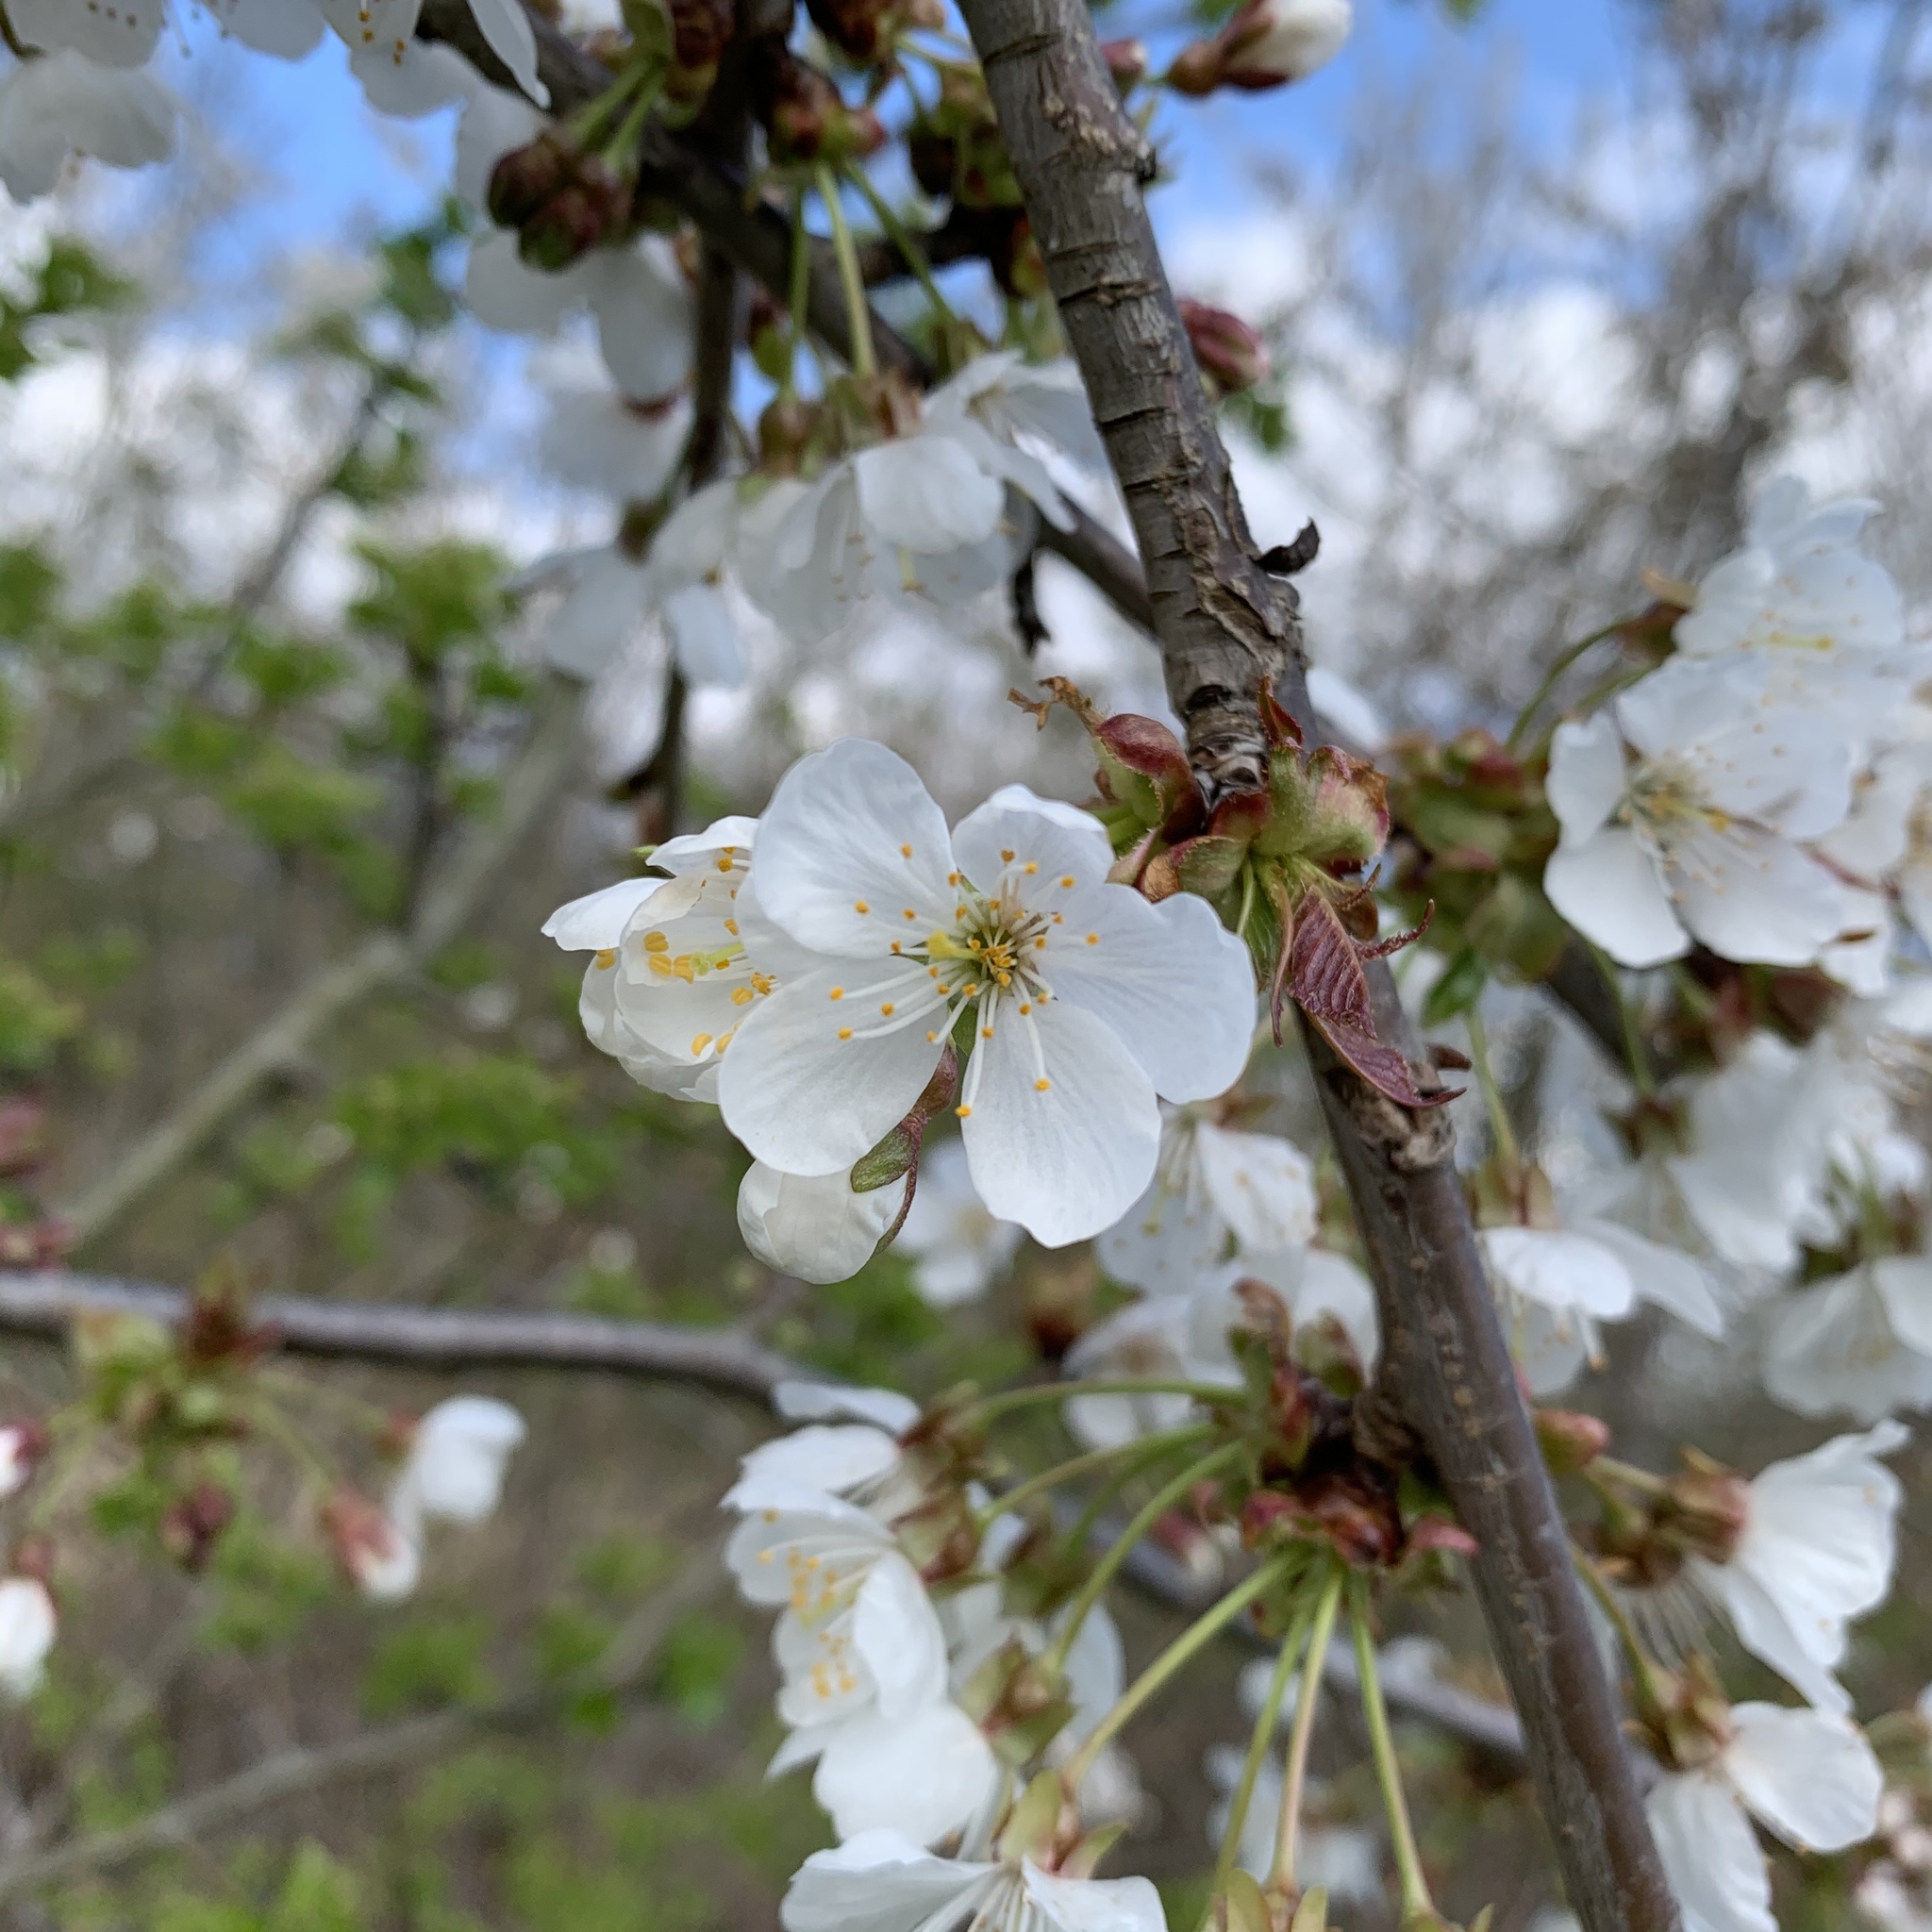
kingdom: Plantae
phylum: Tracheophyta
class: Magnoliopsida
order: Rosales
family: Rosaceae
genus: Prunus
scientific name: Prunus avium
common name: Sweet cherry
